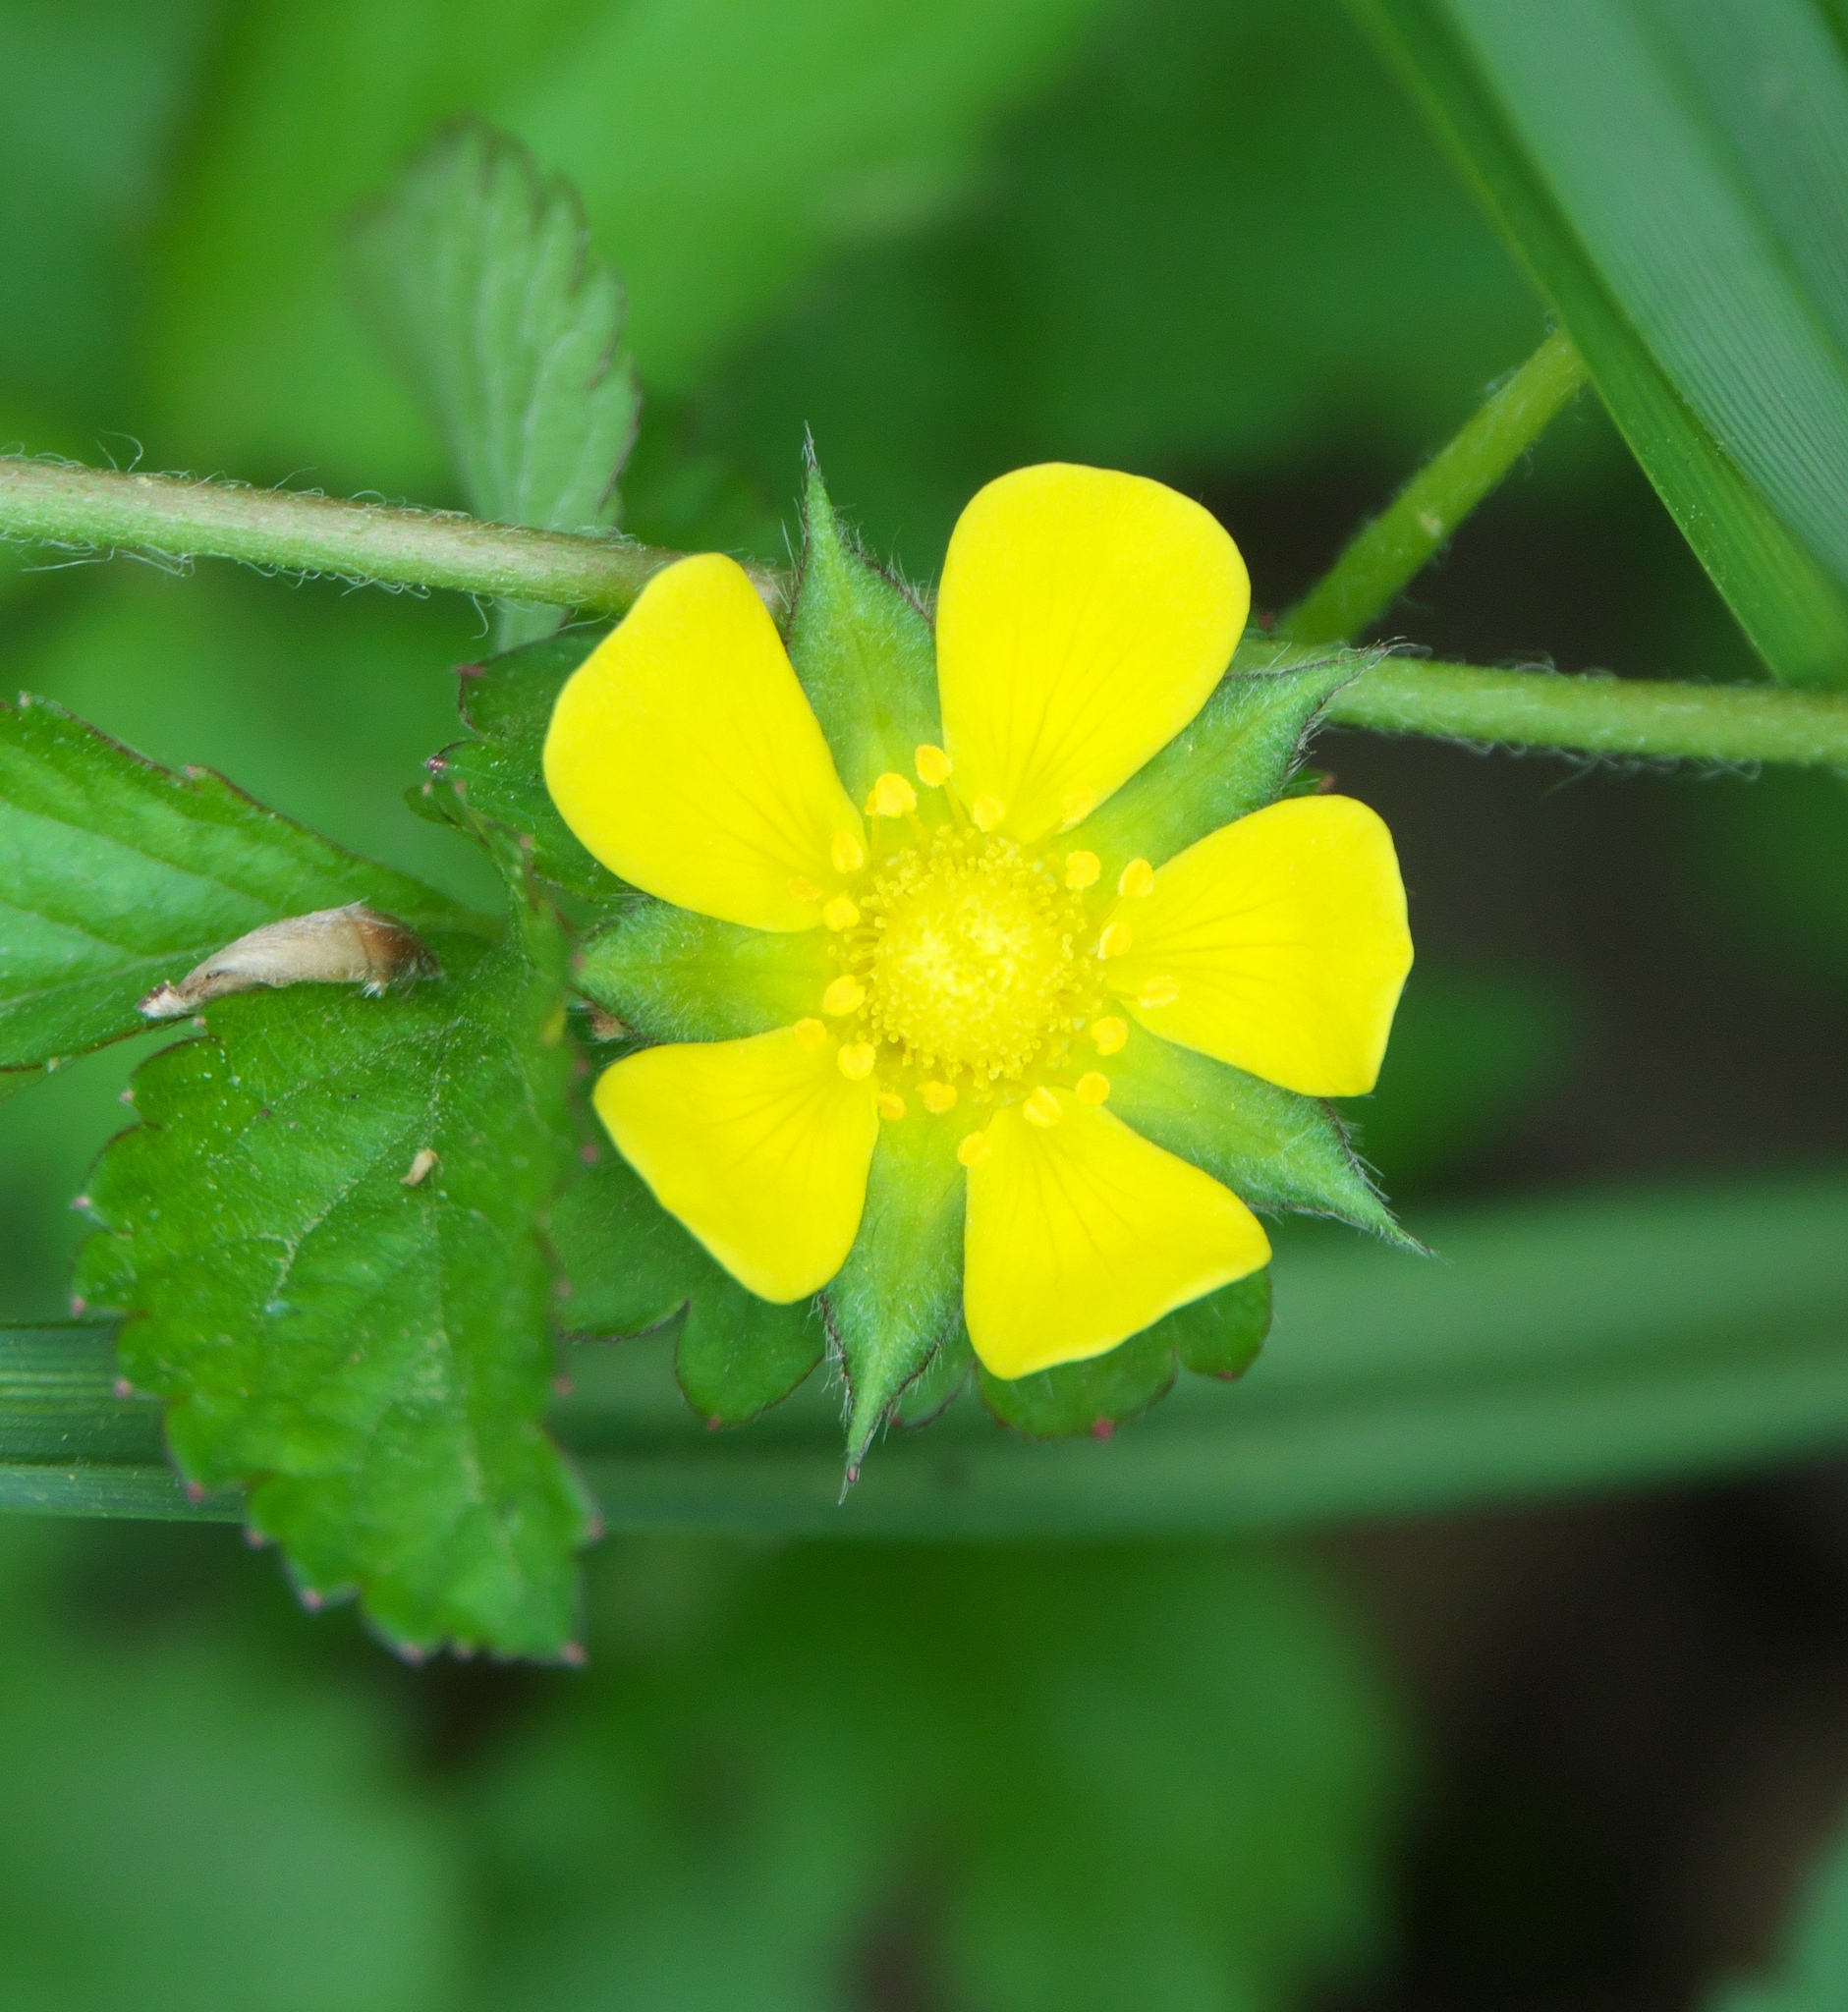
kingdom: Plantae
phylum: Tracheophyta
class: Magnoliopsida
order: Rosales
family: Rosaceae
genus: Potentilla
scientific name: Potentilla indica
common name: Yellow-flowered strawberry
